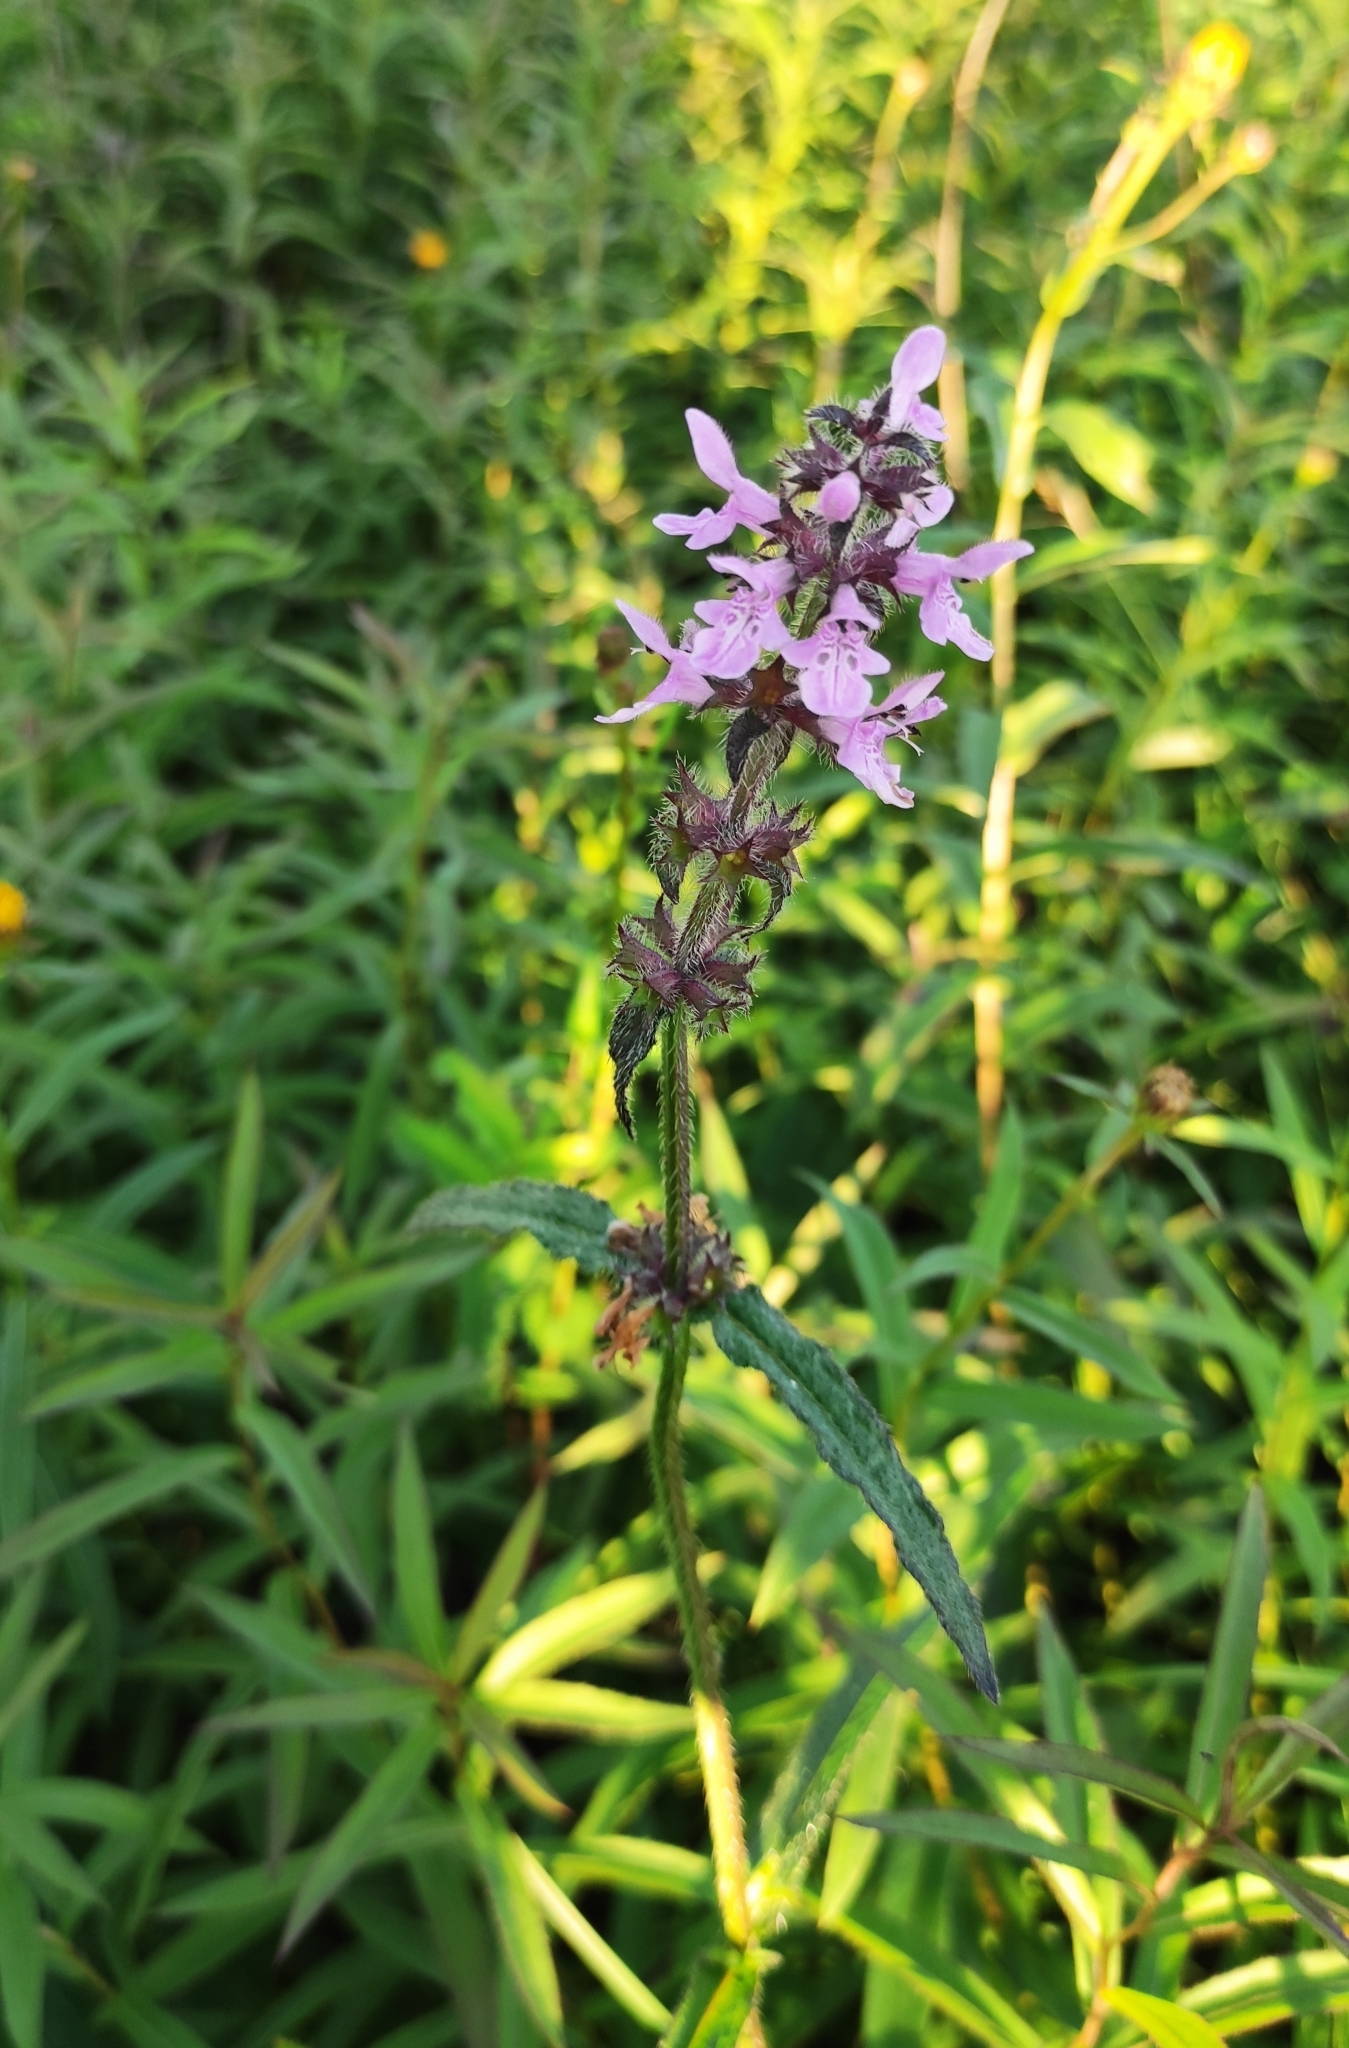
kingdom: Plantae
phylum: Tracheophyta
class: Magnoliopsida
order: Lamiales
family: Lamiaceae
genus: Stachys
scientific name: Stachys aspera
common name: Hyssopleaf hedgenettle
